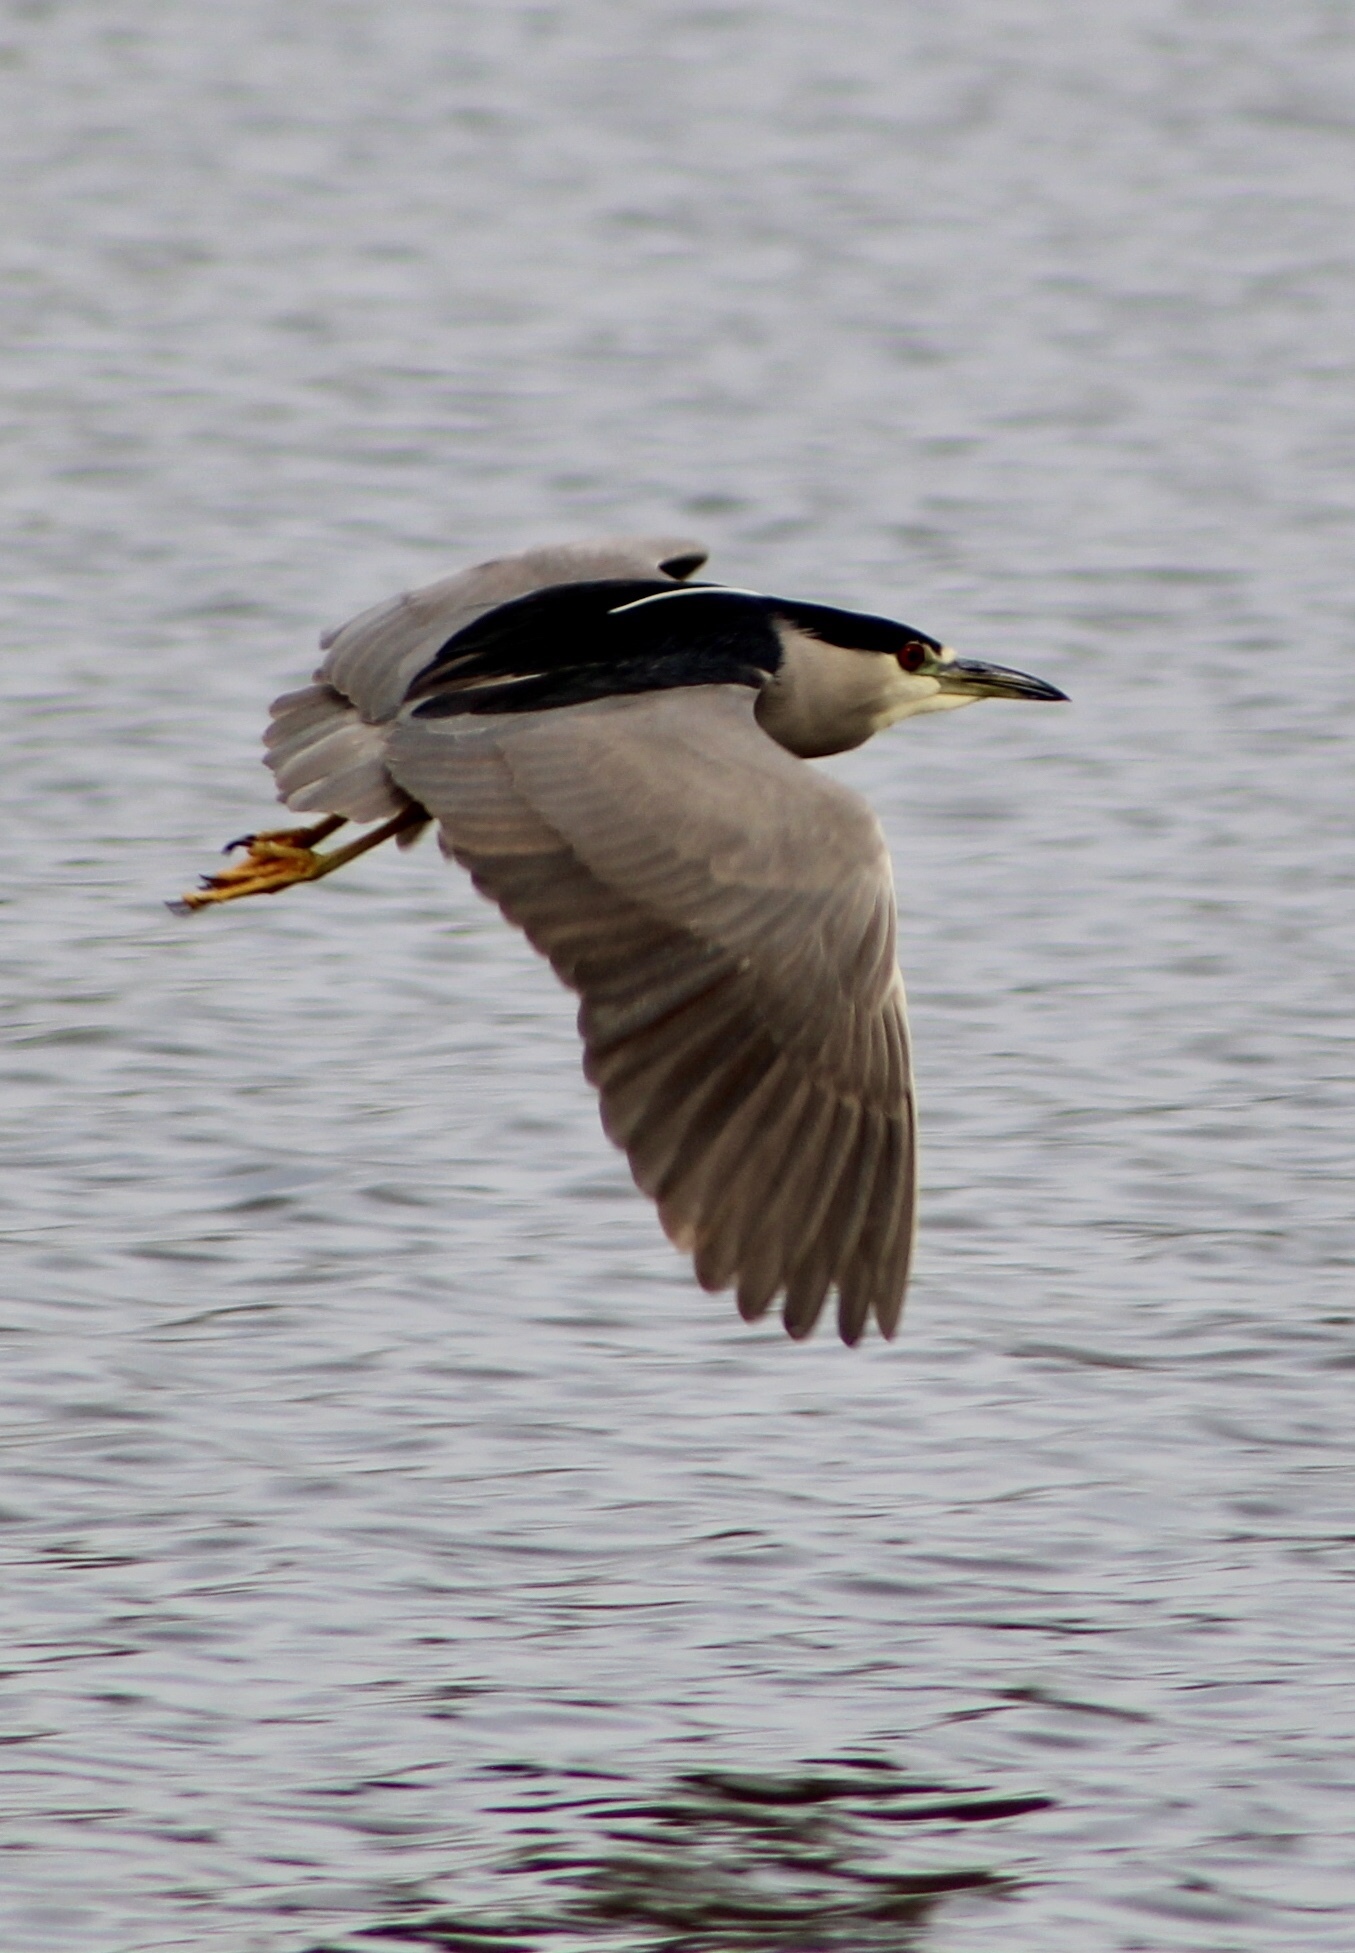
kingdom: Animalia
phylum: Chordata
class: Aves
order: Pelecaniformes
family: Ardeidae
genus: Nycticorax
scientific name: Nycticorax nycticorax
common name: Black-crowned night heron
